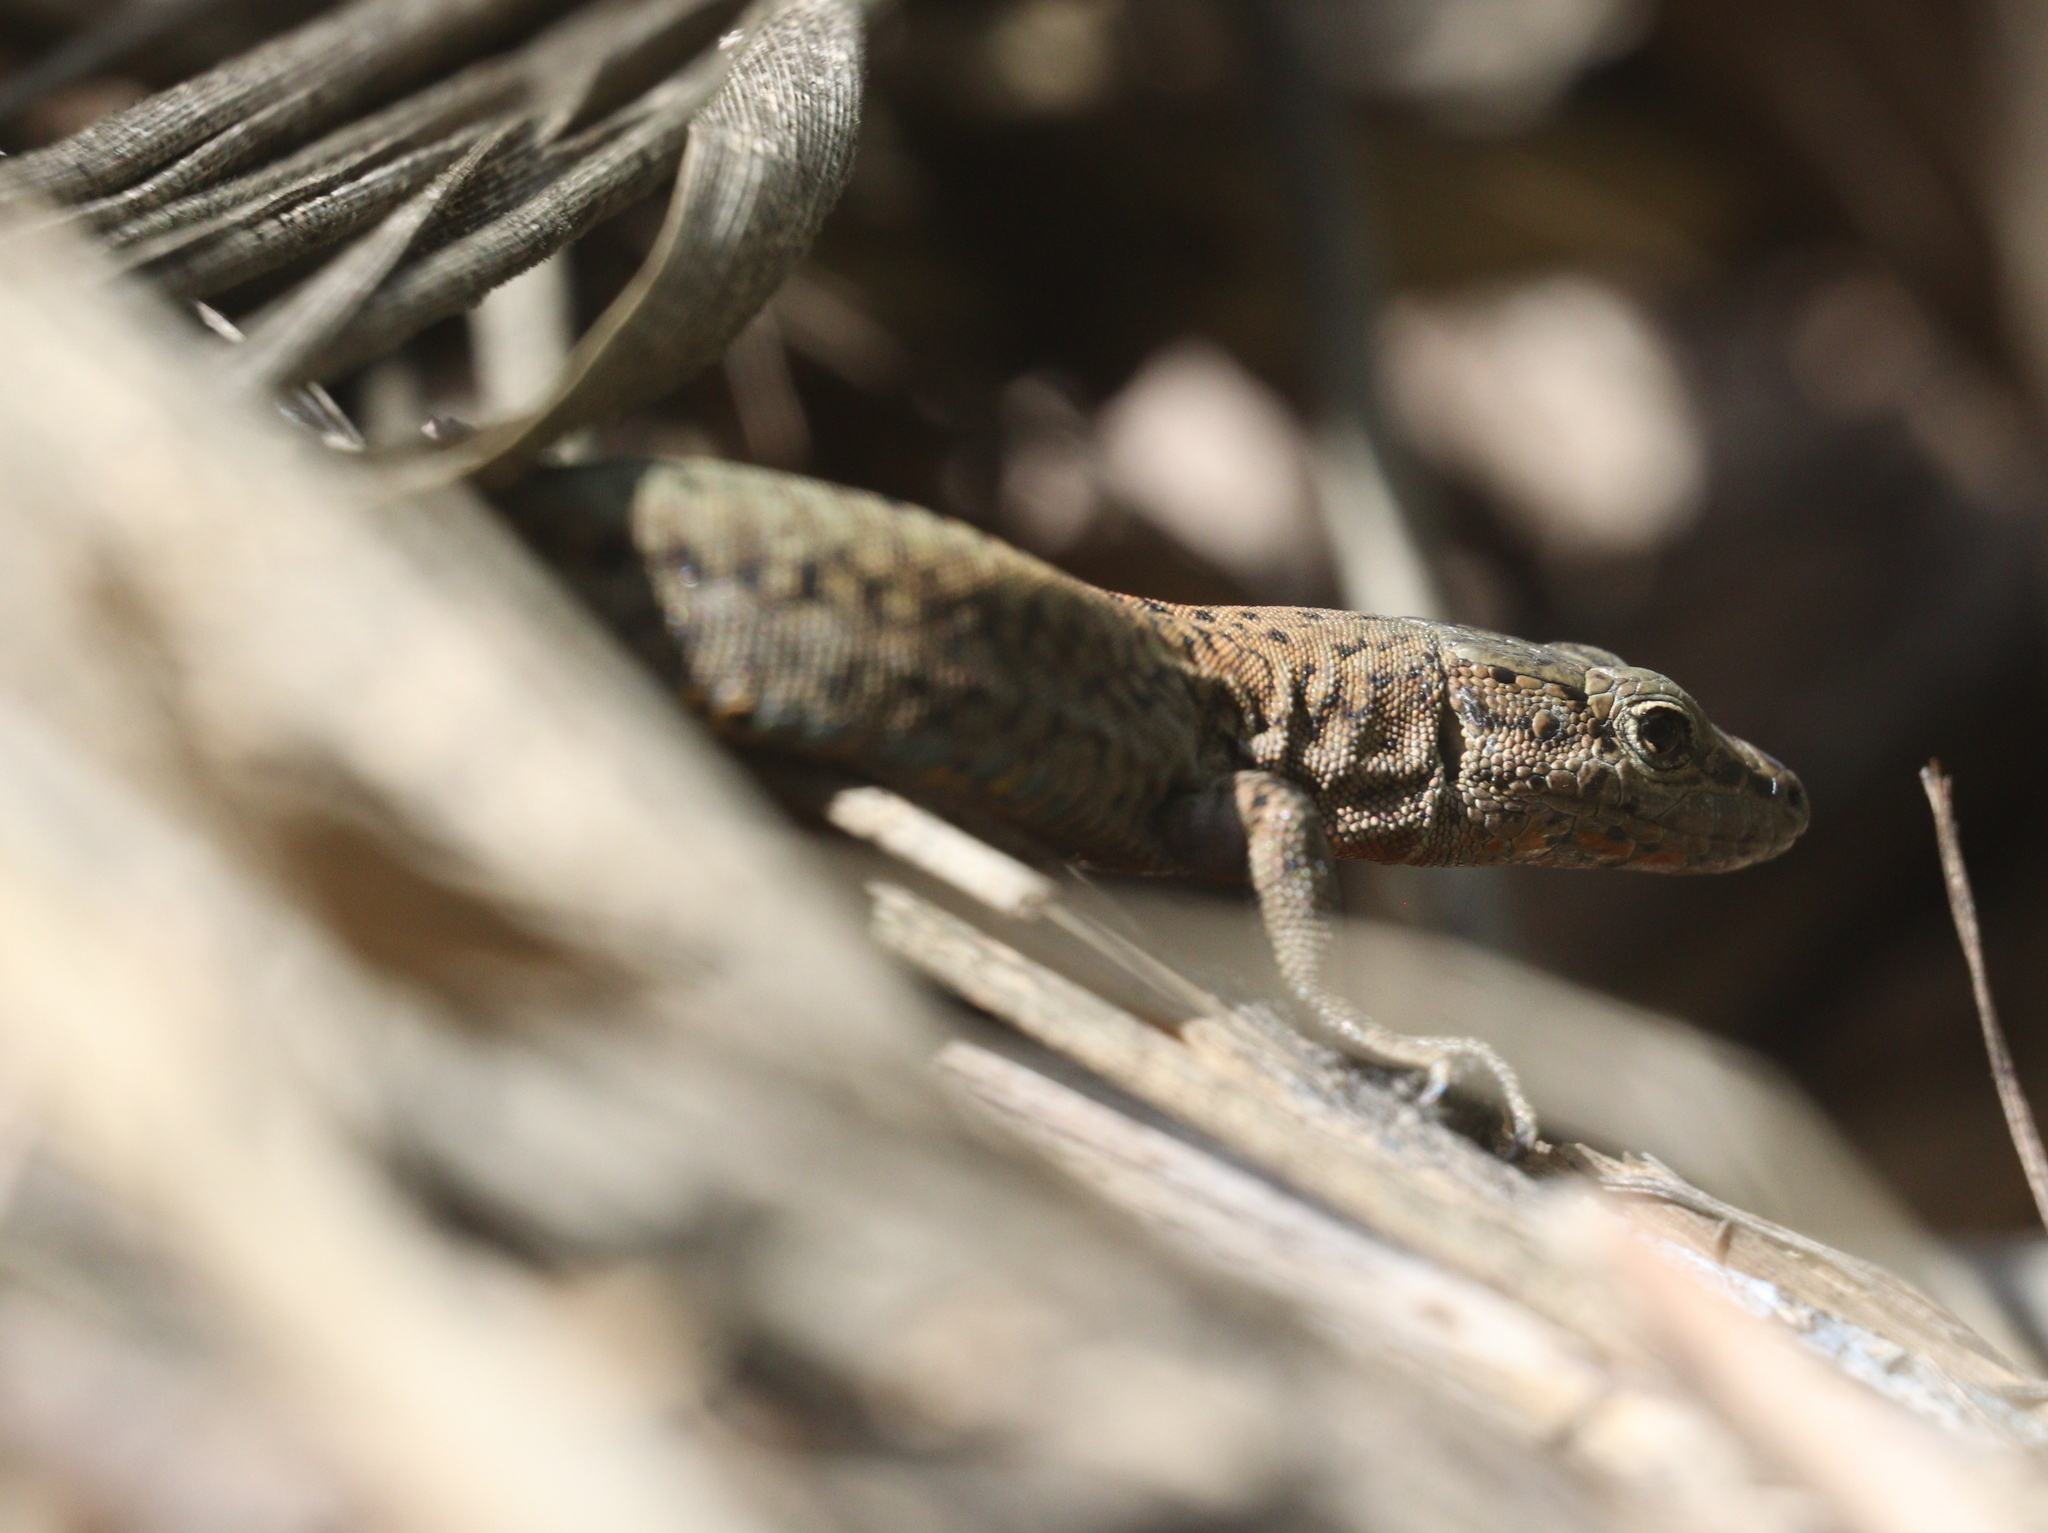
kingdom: Animalia
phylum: Chordata
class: Squamata
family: Lacertidae
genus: Podarcis
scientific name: Podarcis virescens
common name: Geniez’s wall lizard
